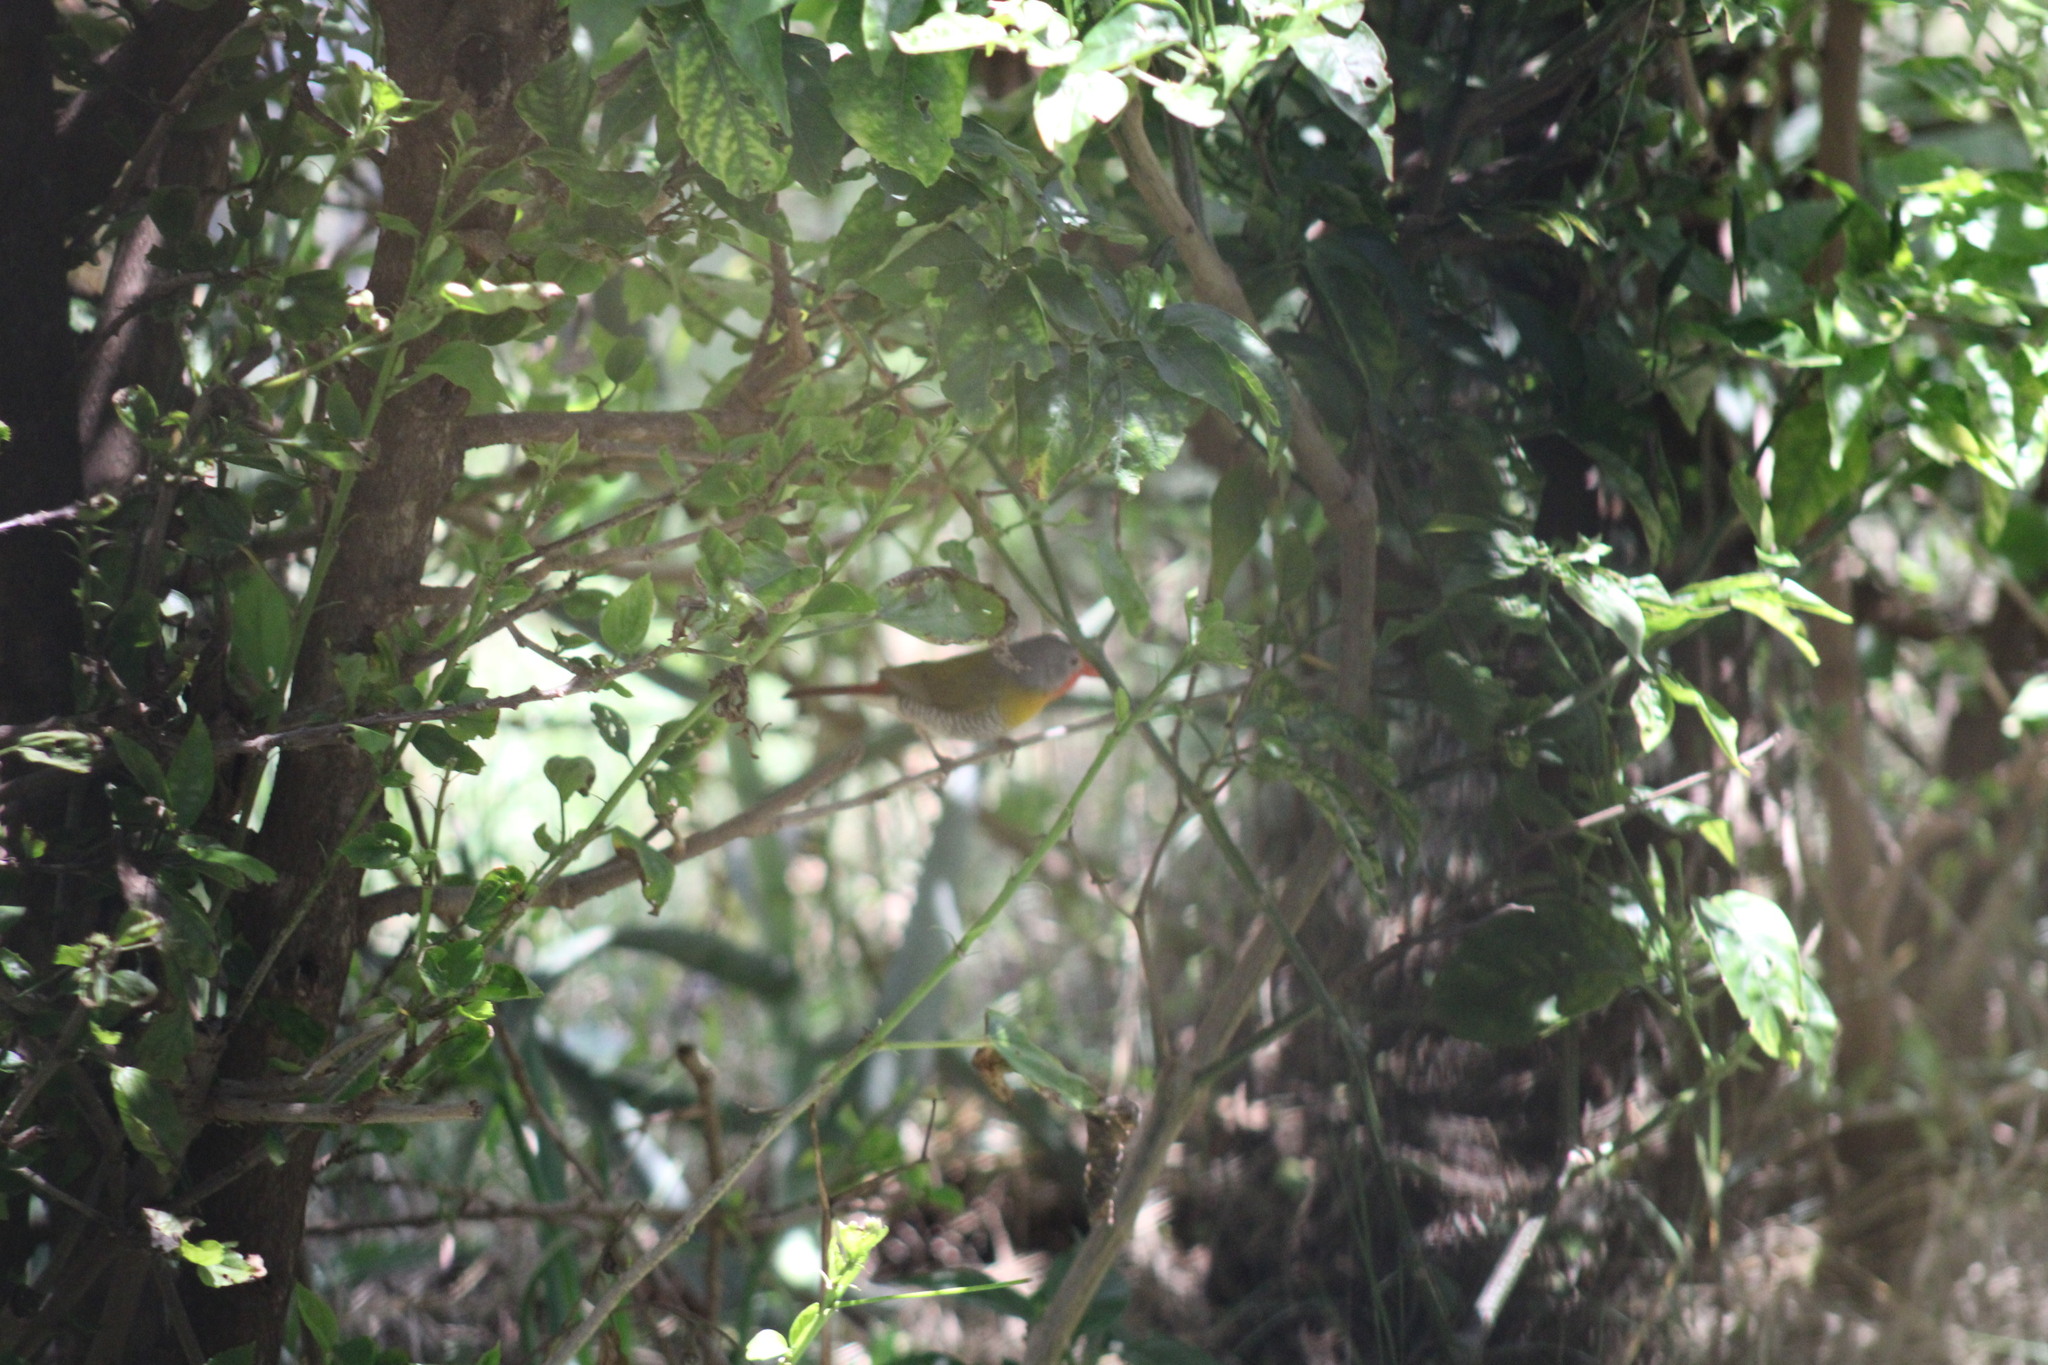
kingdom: Animalia
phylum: Chordata
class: Aves
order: Passeriformes
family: Estrildidae
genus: Pytilia
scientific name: Pytilia melba
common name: Green-winged pytilia
